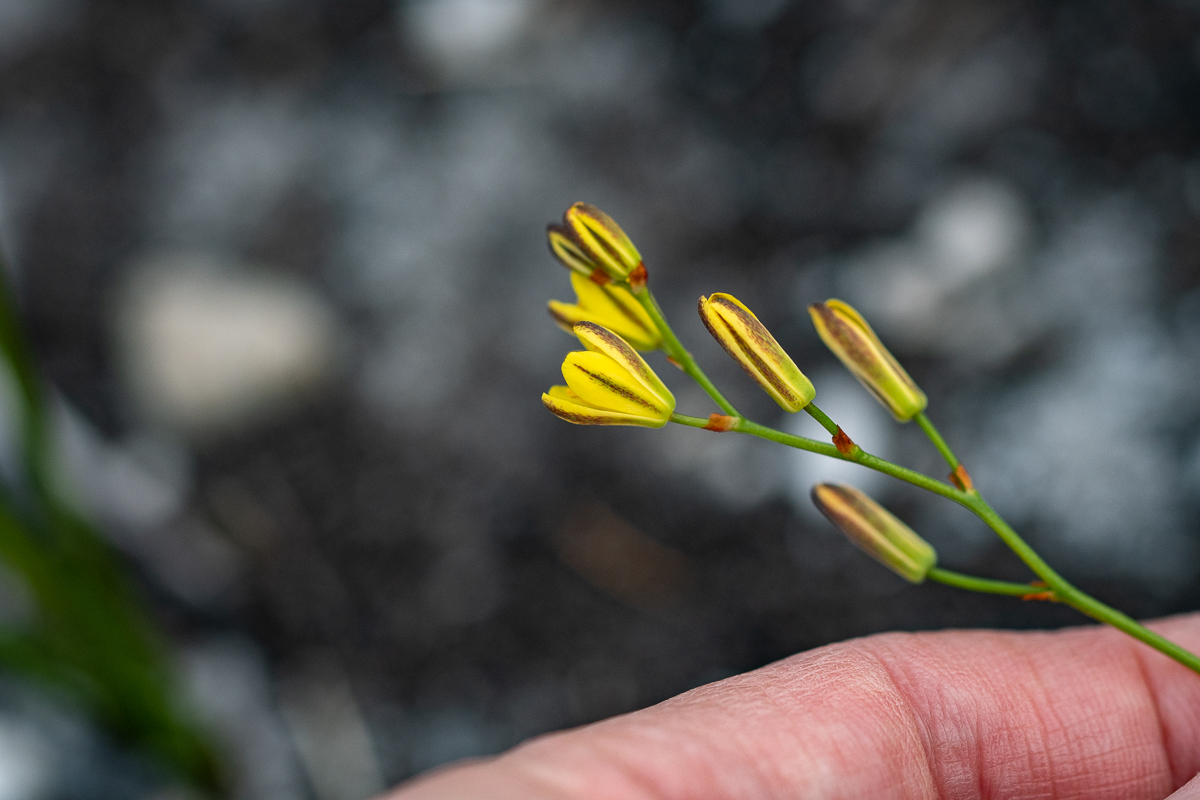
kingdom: Plantae
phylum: Tracheophyta
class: Liliopsida
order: Asparagales
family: Asparagaceae
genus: Eriospermum
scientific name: Eriospermum schlechteri
